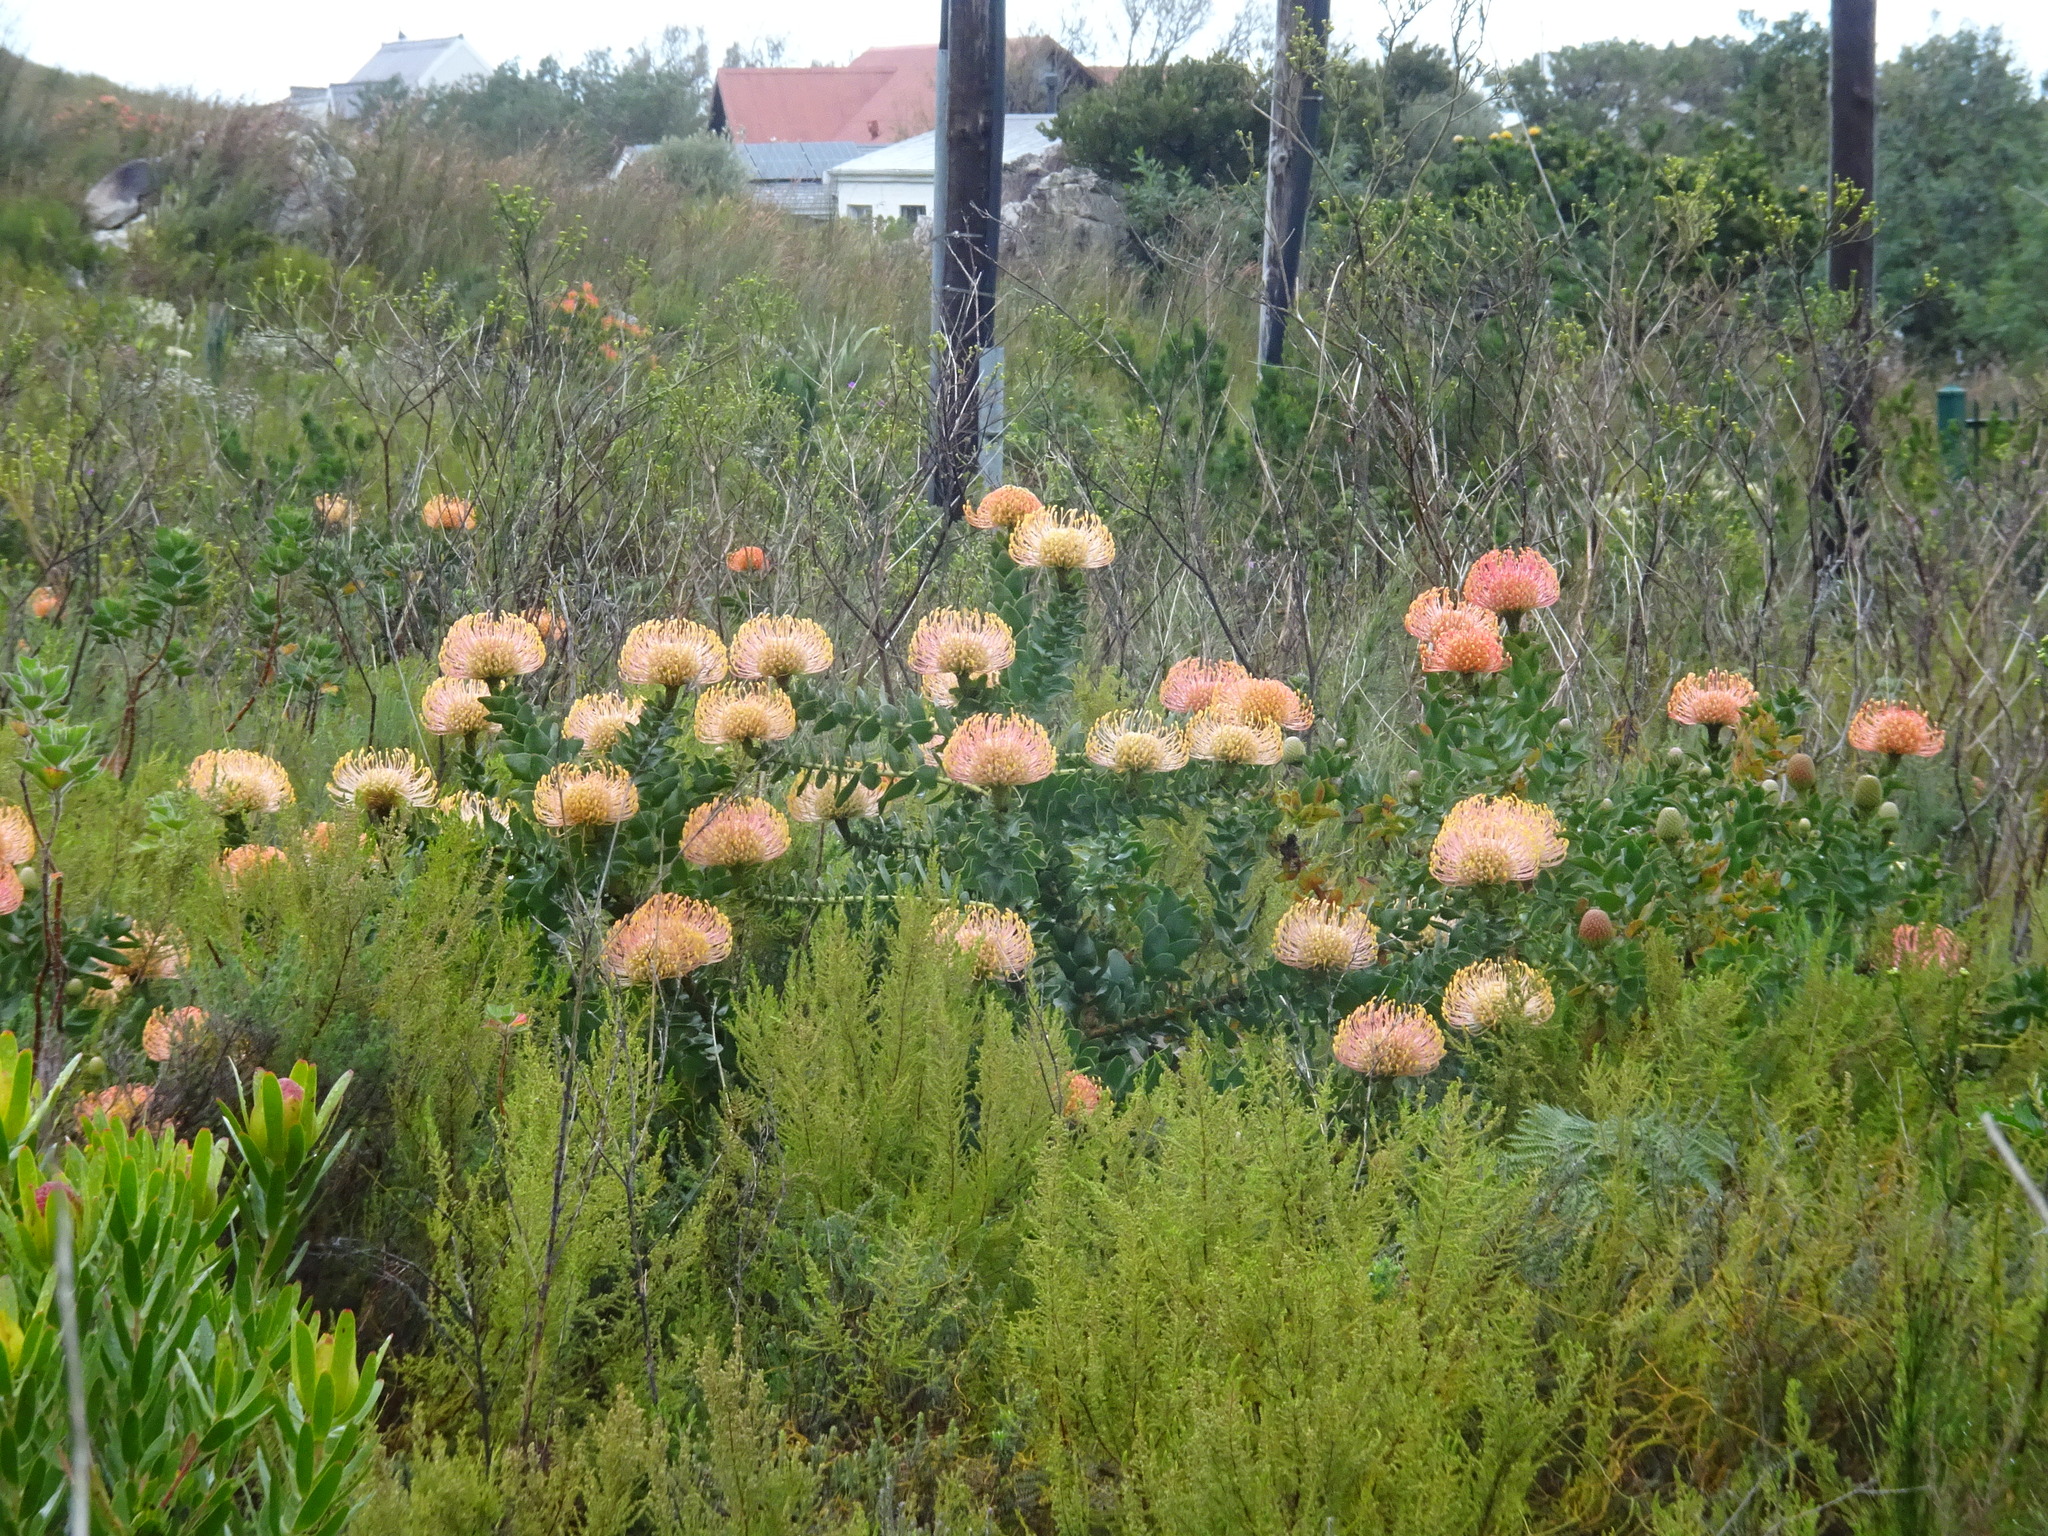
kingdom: Plantae
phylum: Tracheophyta
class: Magnoliopsida
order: Proteales
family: Proteaceae
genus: Leucospermum
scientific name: Leucospermum cordifolium
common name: Red pincushion-protea
